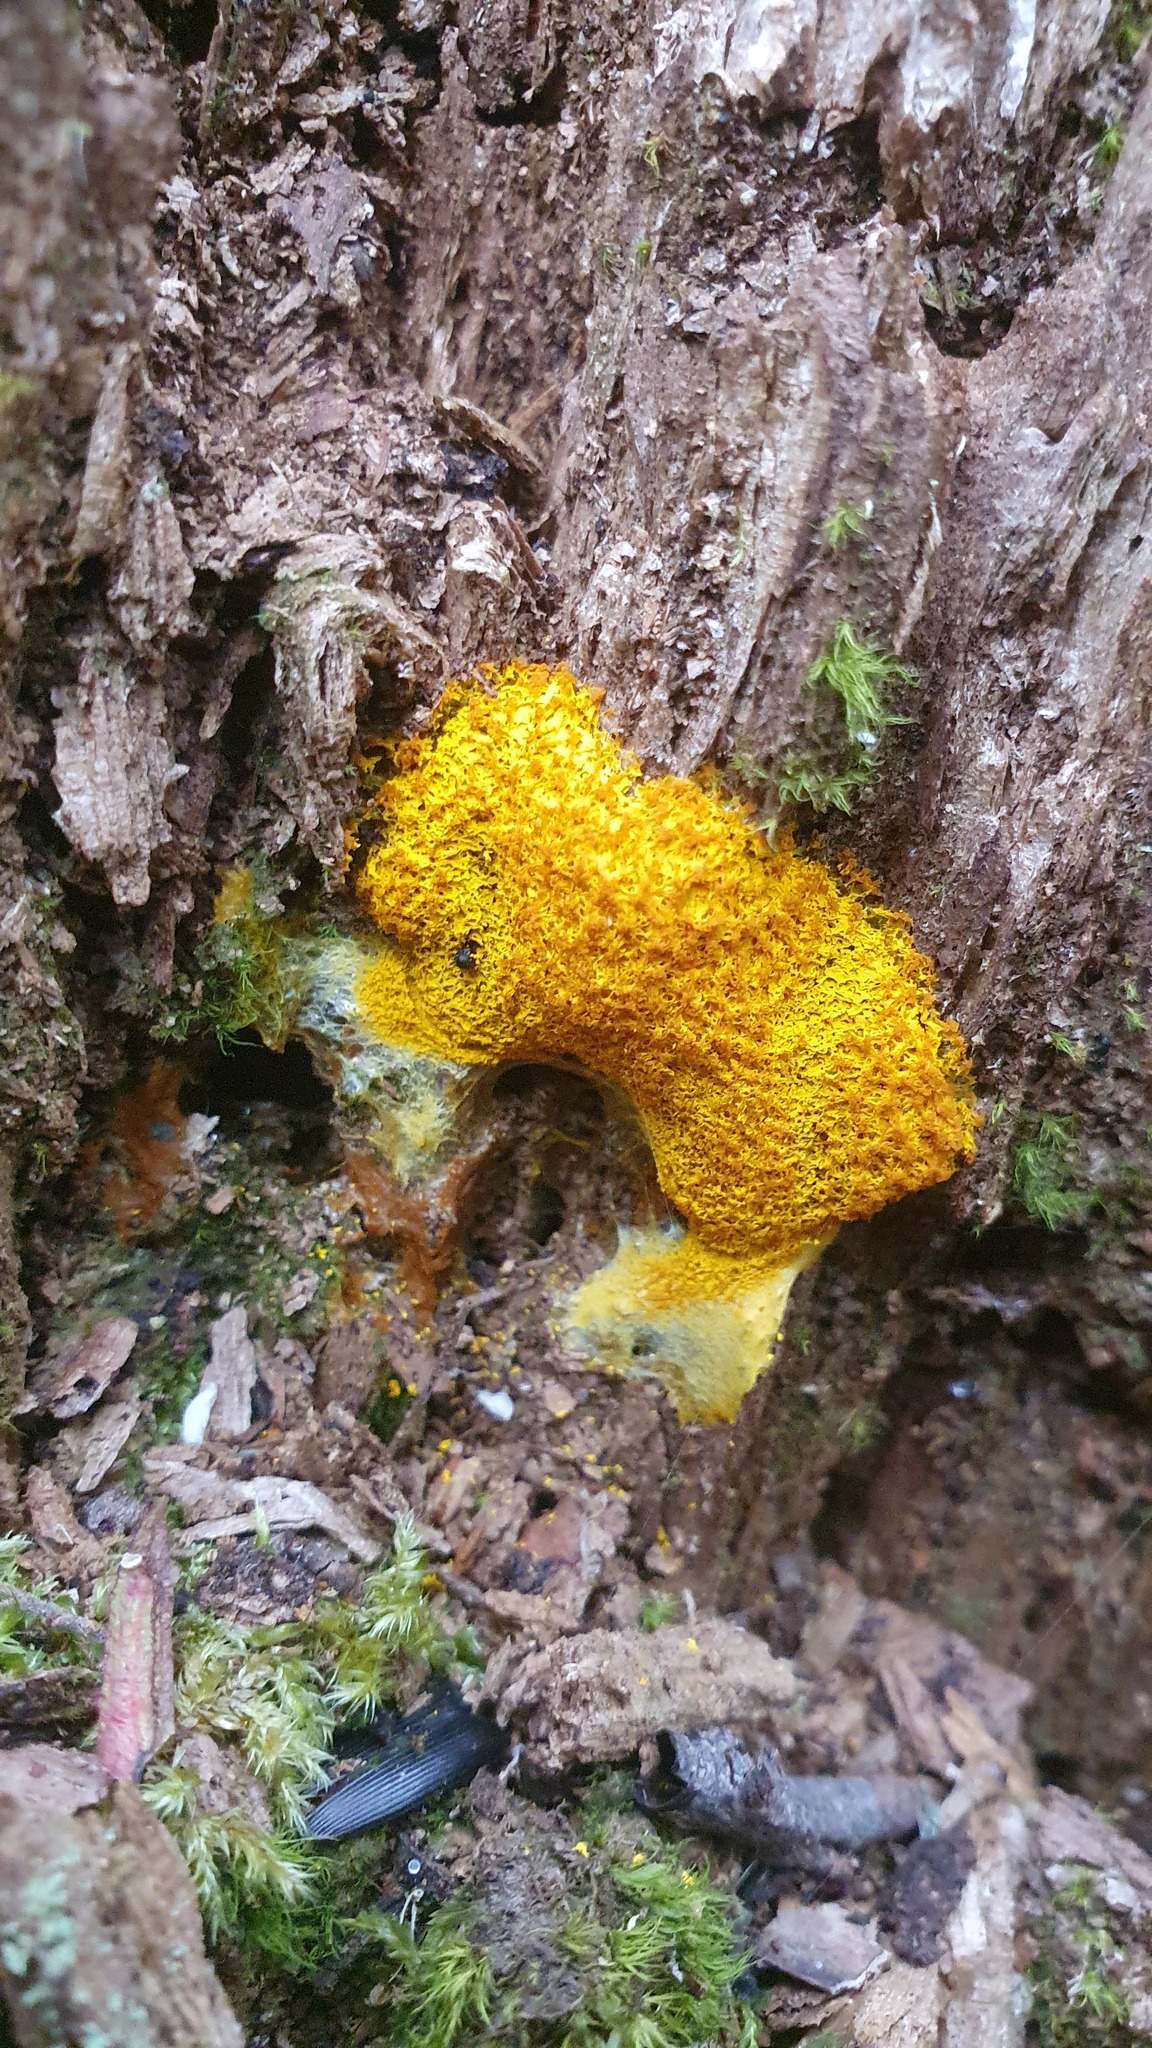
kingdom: Protozoa
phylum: Mycetozoa
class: Myxomycetes
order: Physarales
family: Physaraceae
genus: Fuligo
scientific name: Fuligo septica
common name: Dog vomit slime mold
